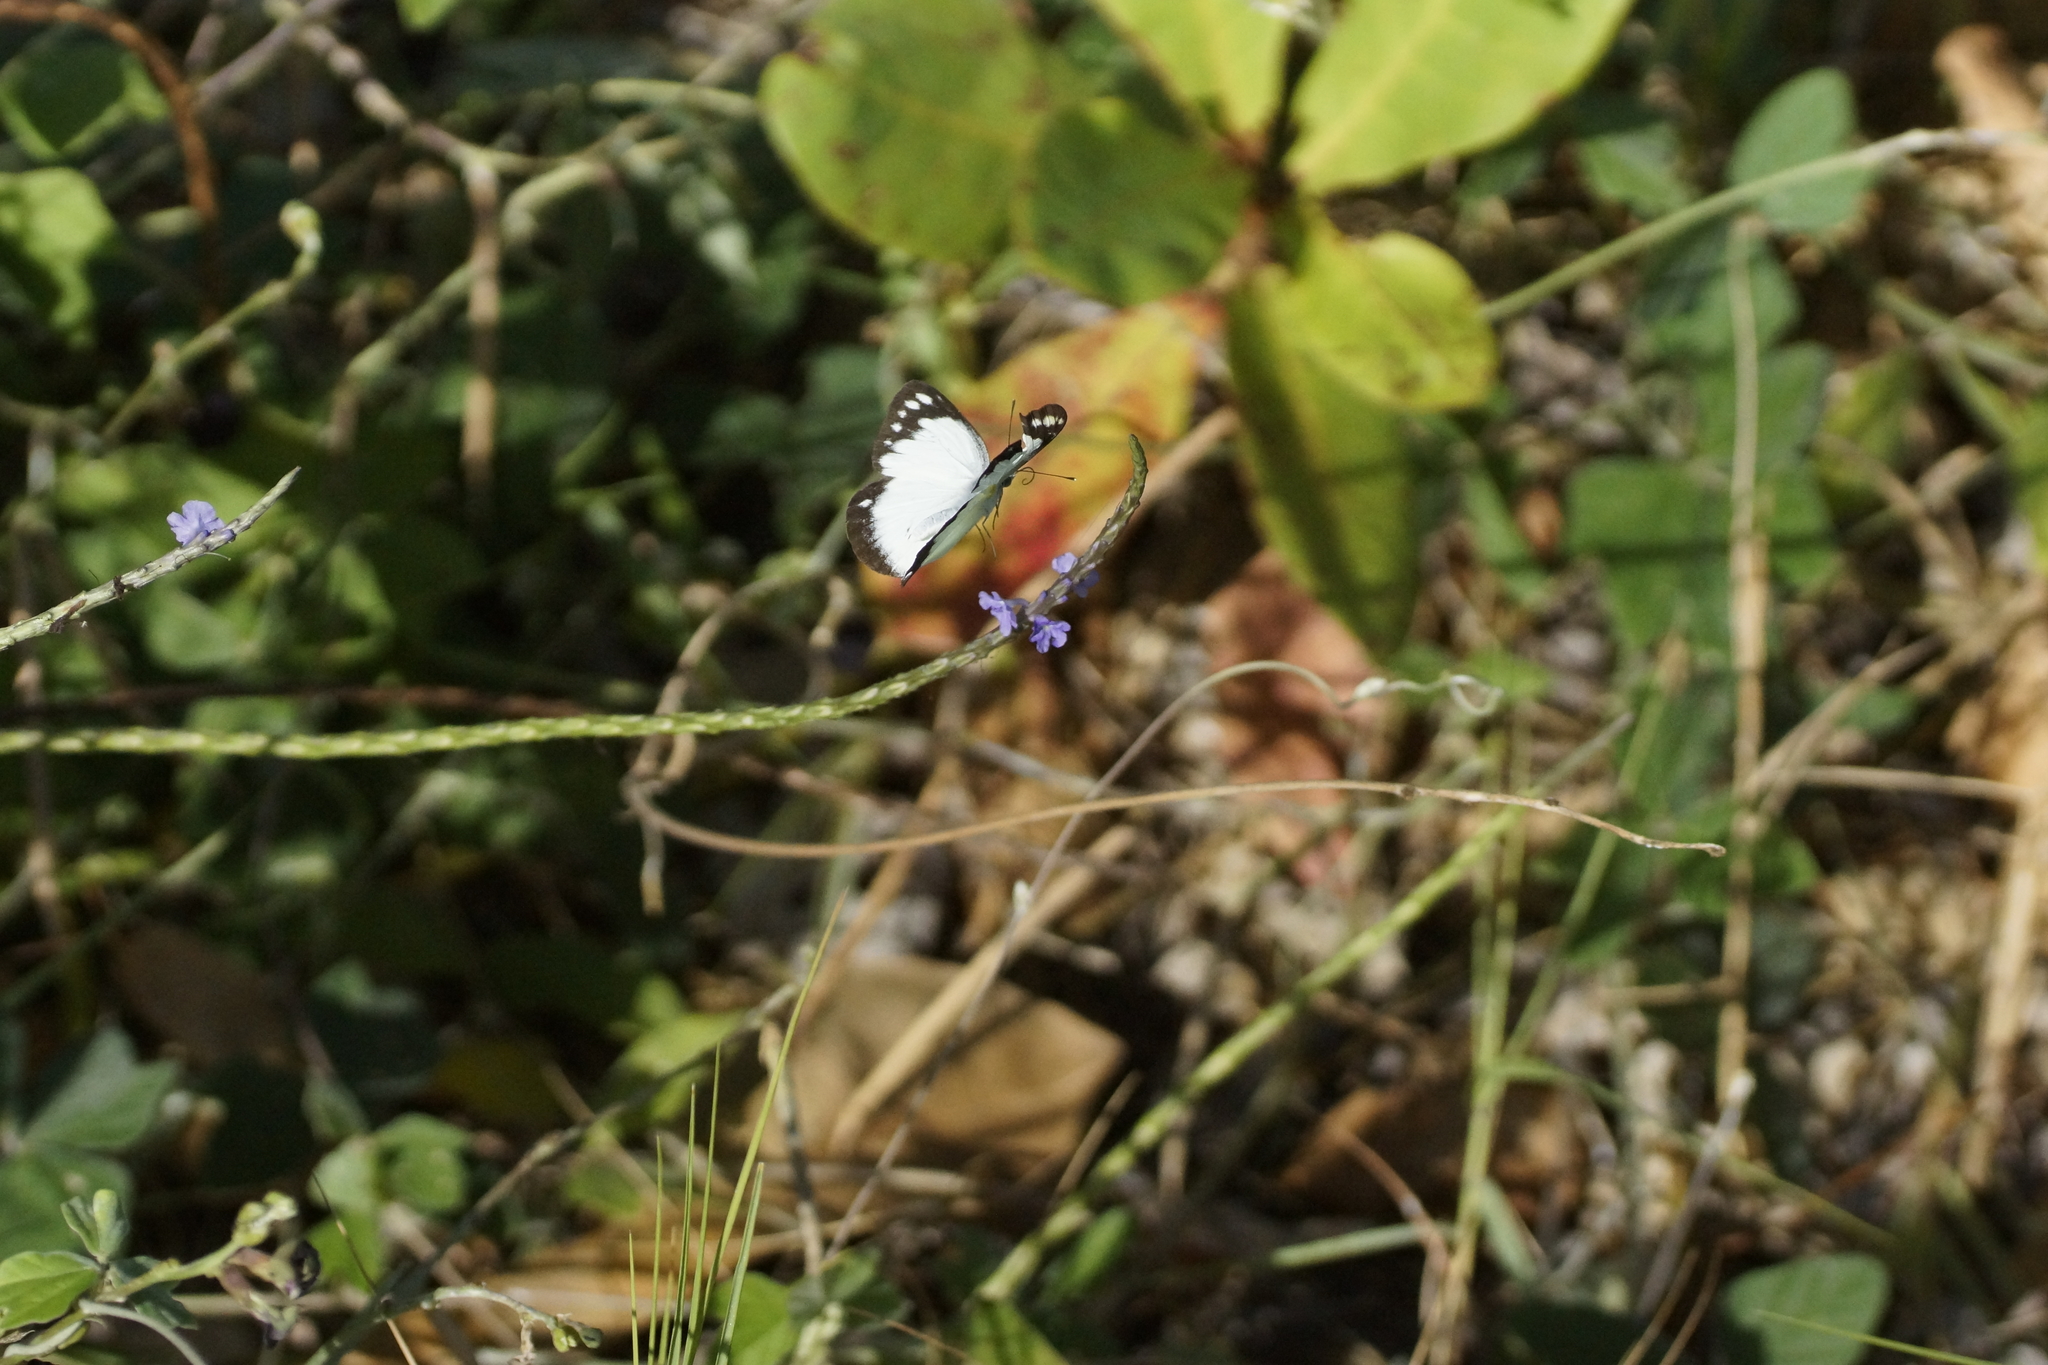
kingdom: Animalia
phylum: Arthropoda
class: Insecta
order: Lepidoptera
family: Pieridae
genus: Cepora
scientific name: Cepora perimale
